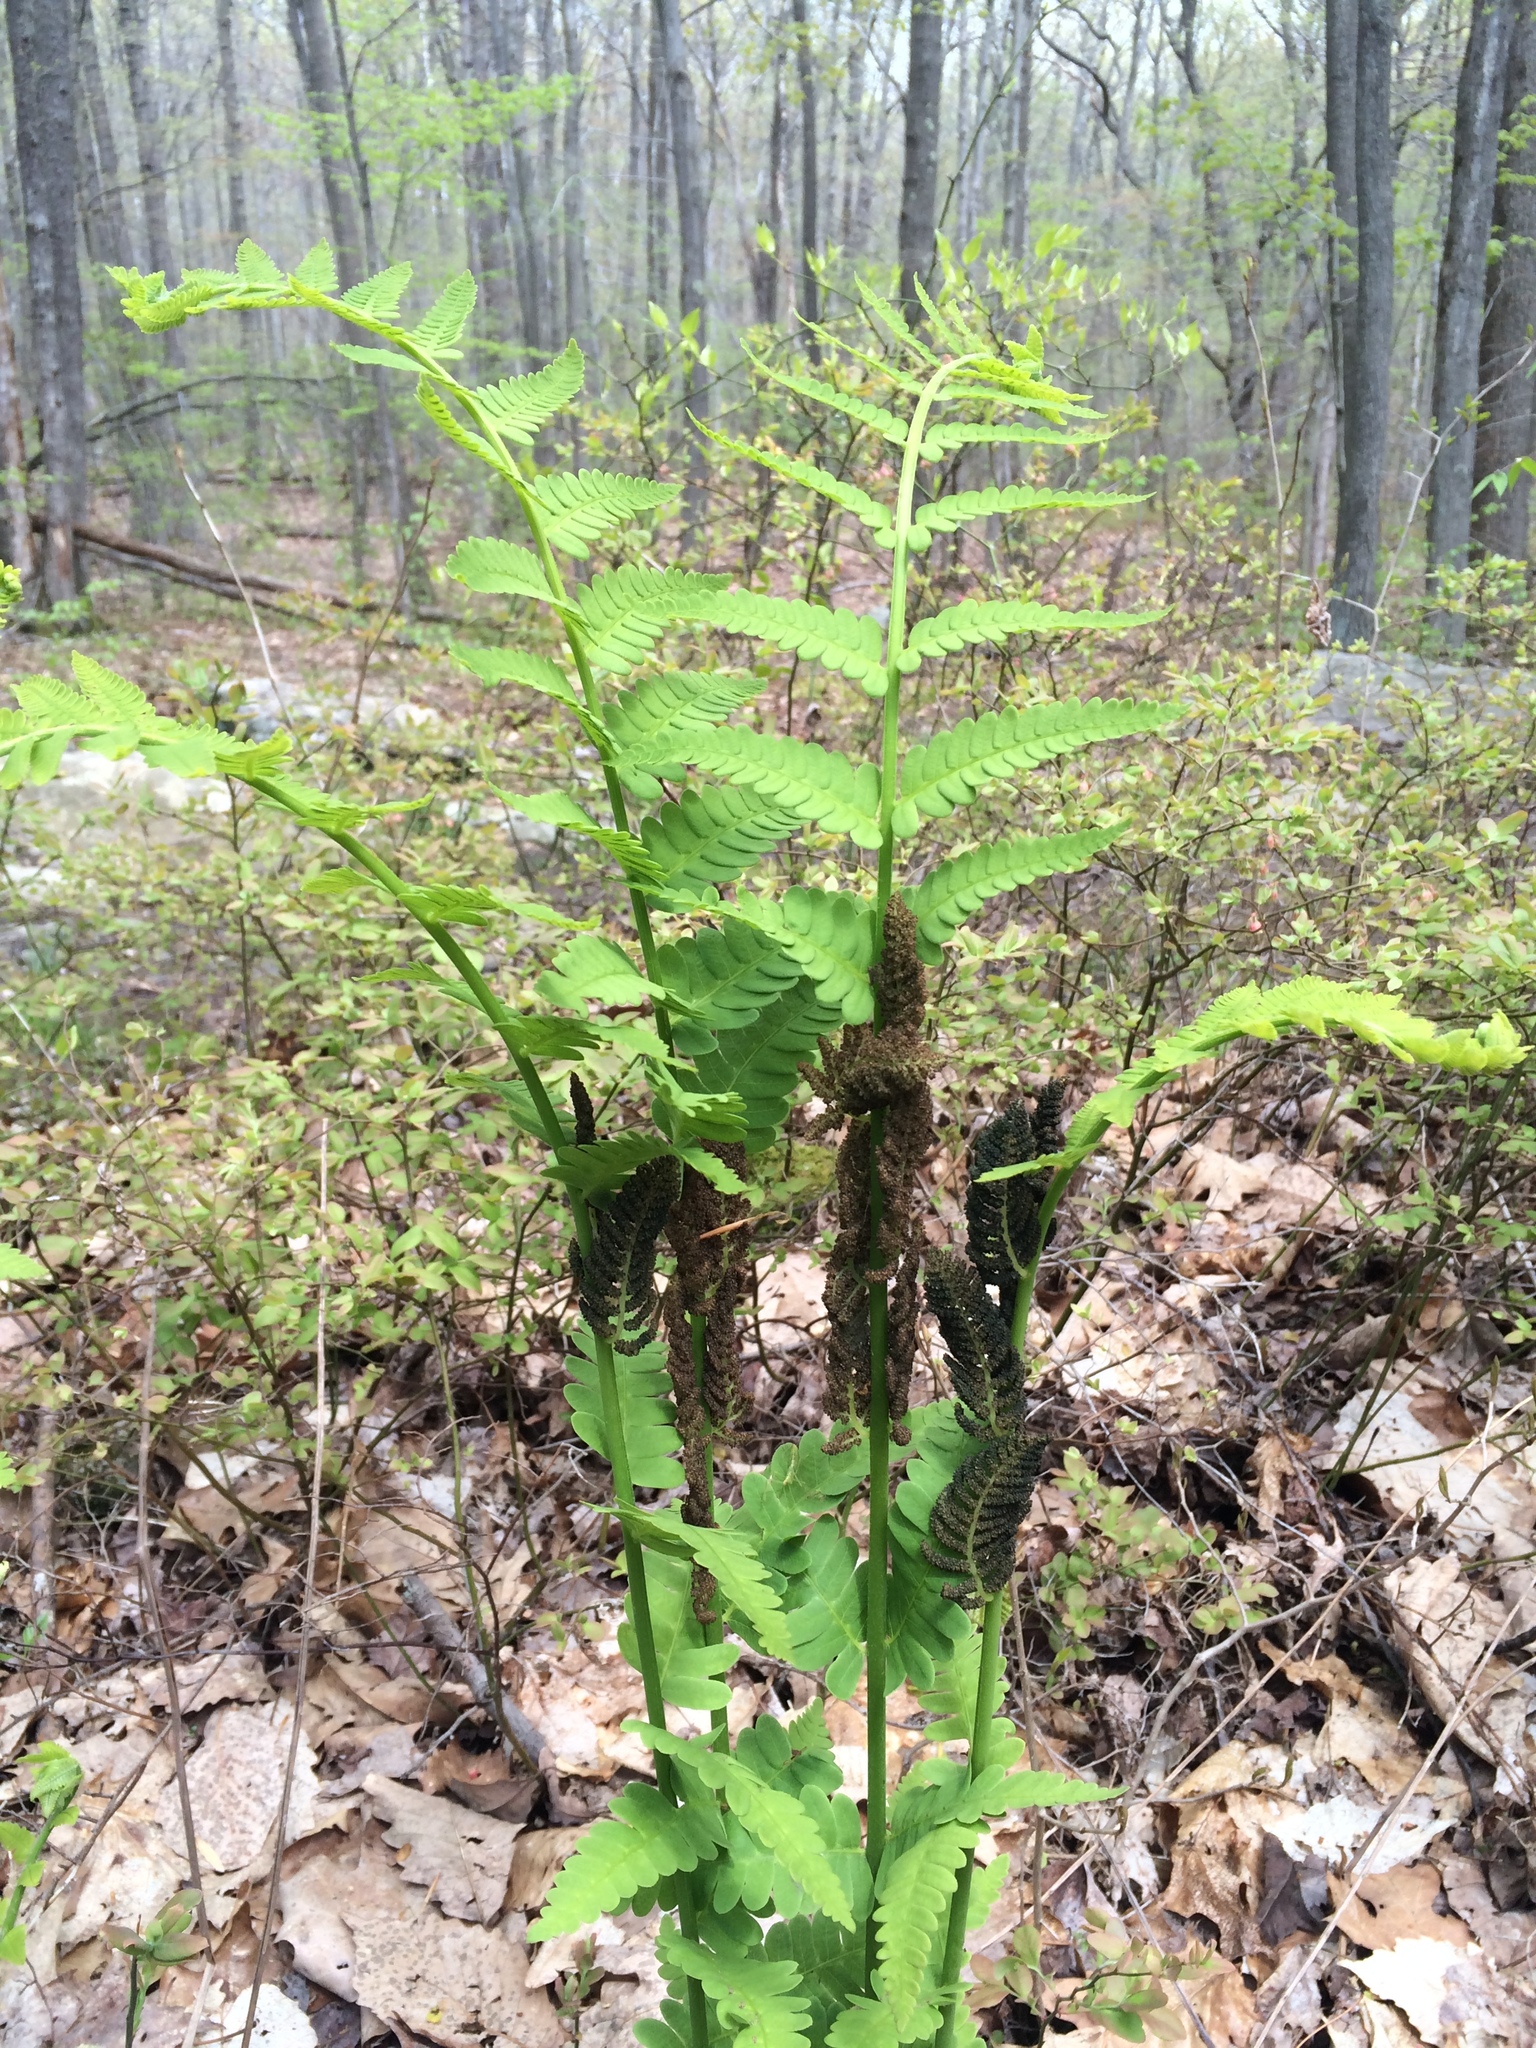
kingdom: Plantae
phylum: Tracheophyta
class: Polypodiopsida
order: Osmundales
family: Osmundaceae
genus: Claytosmunda
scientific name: Claytosmunda claytoniana
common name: Clayton's fern
